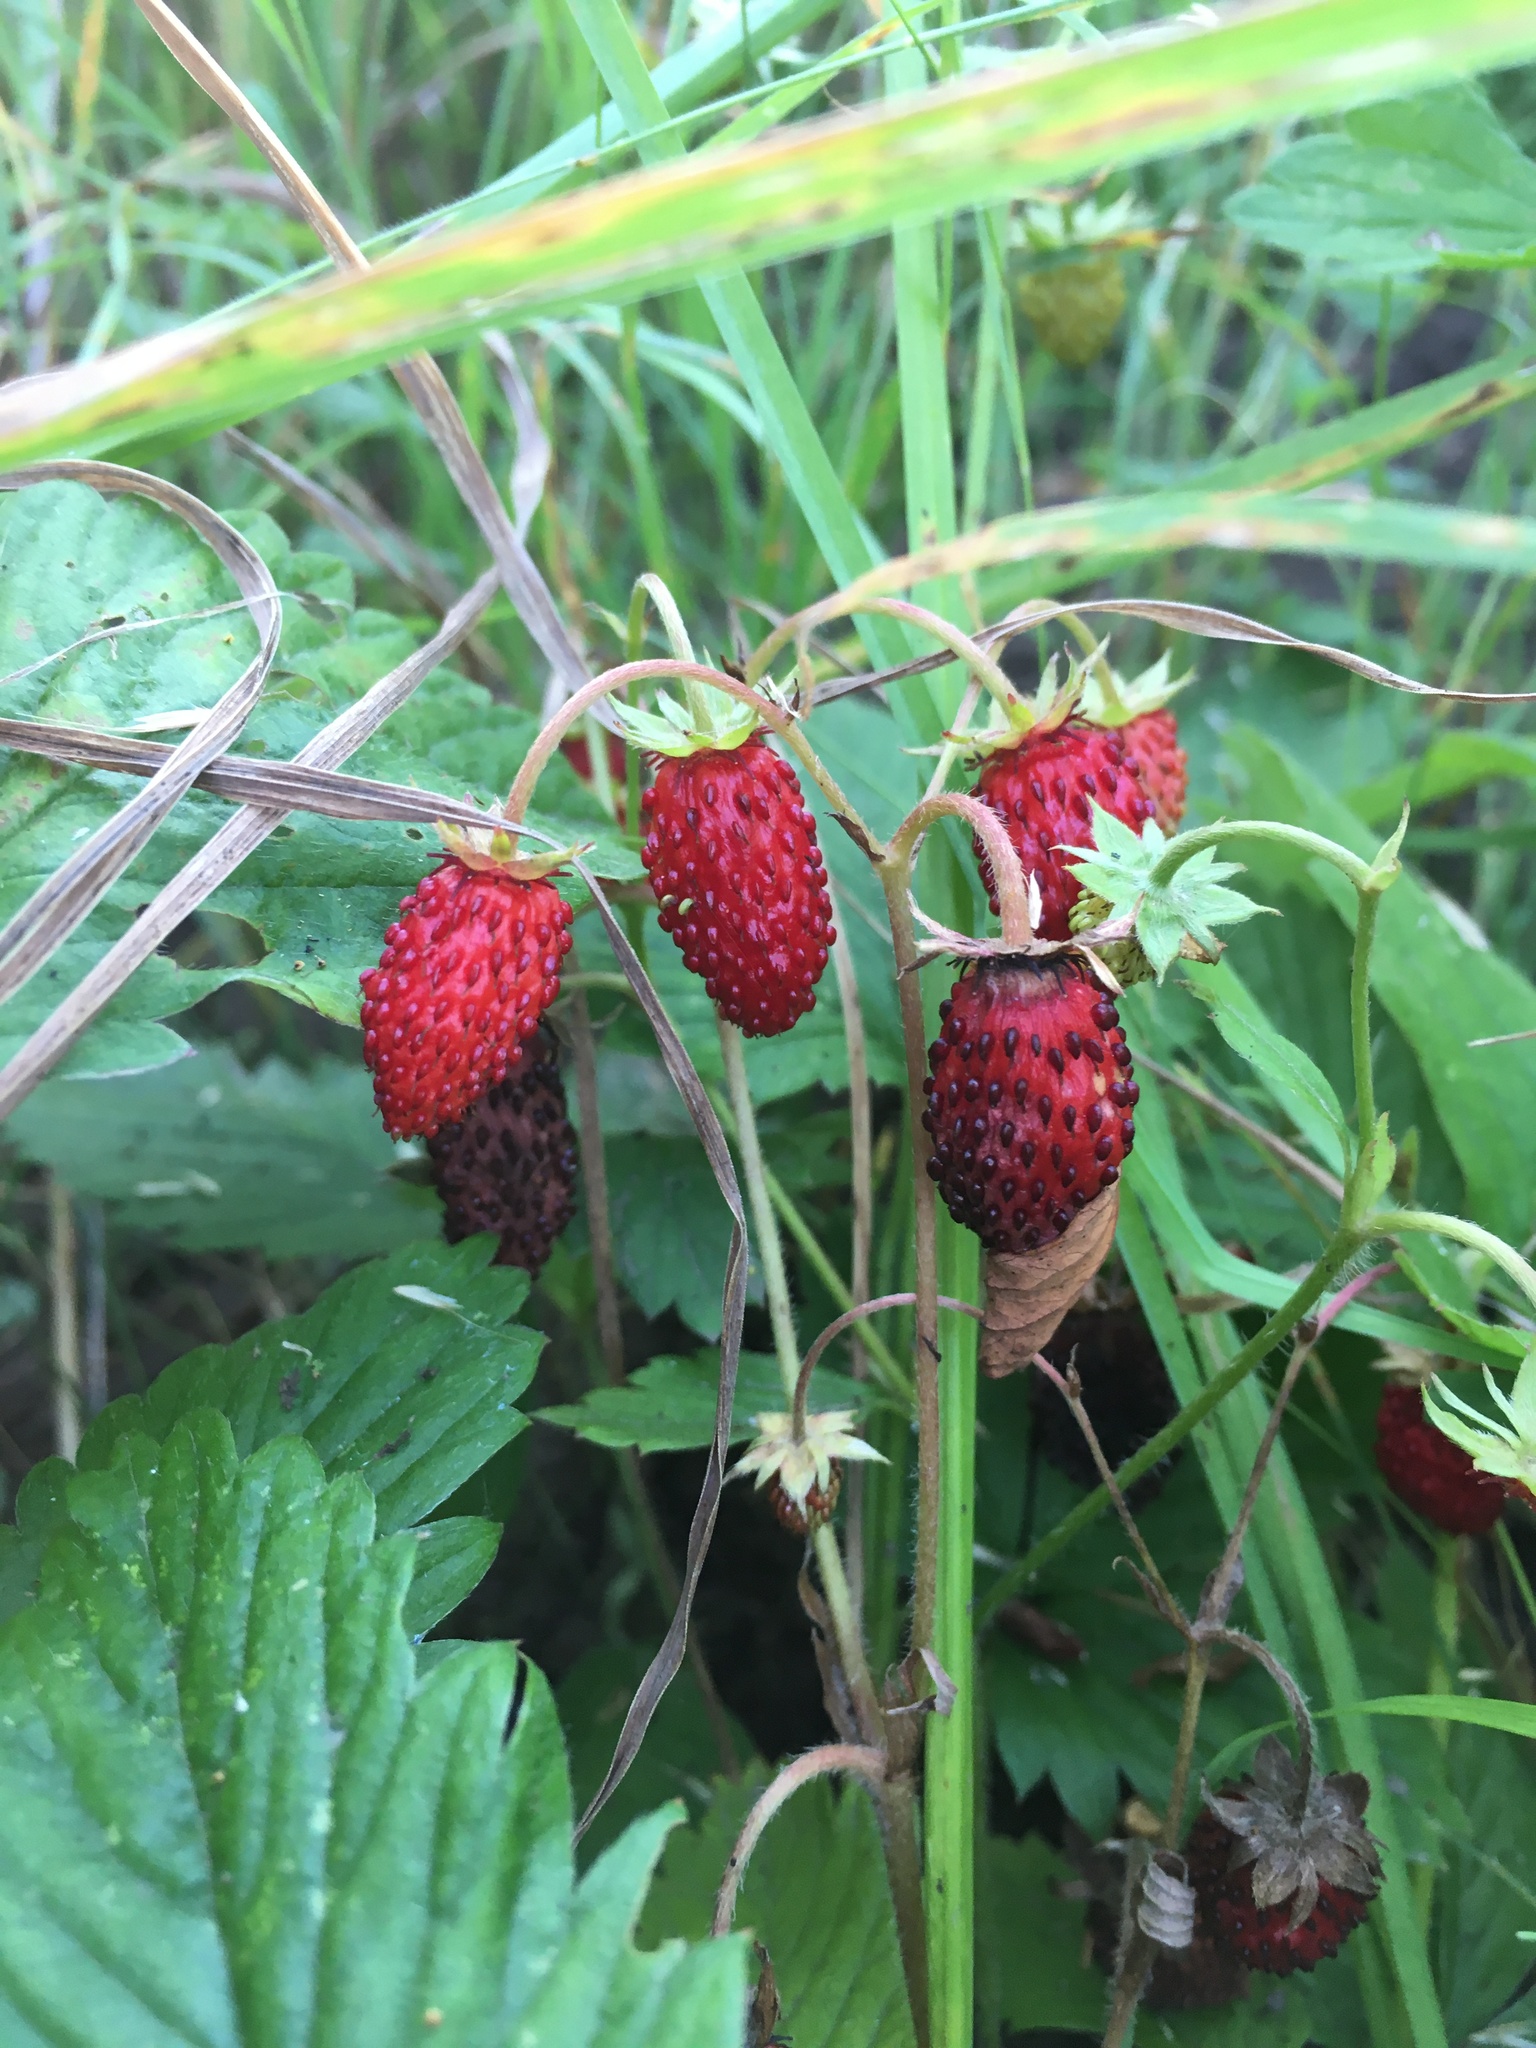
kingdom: Plantae
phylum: Tracheophyta
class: Magnoliopsida
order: Rosales
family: Rosaceae
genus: Fragaria
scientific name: Fragaria vesca
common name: Wild strawberry
